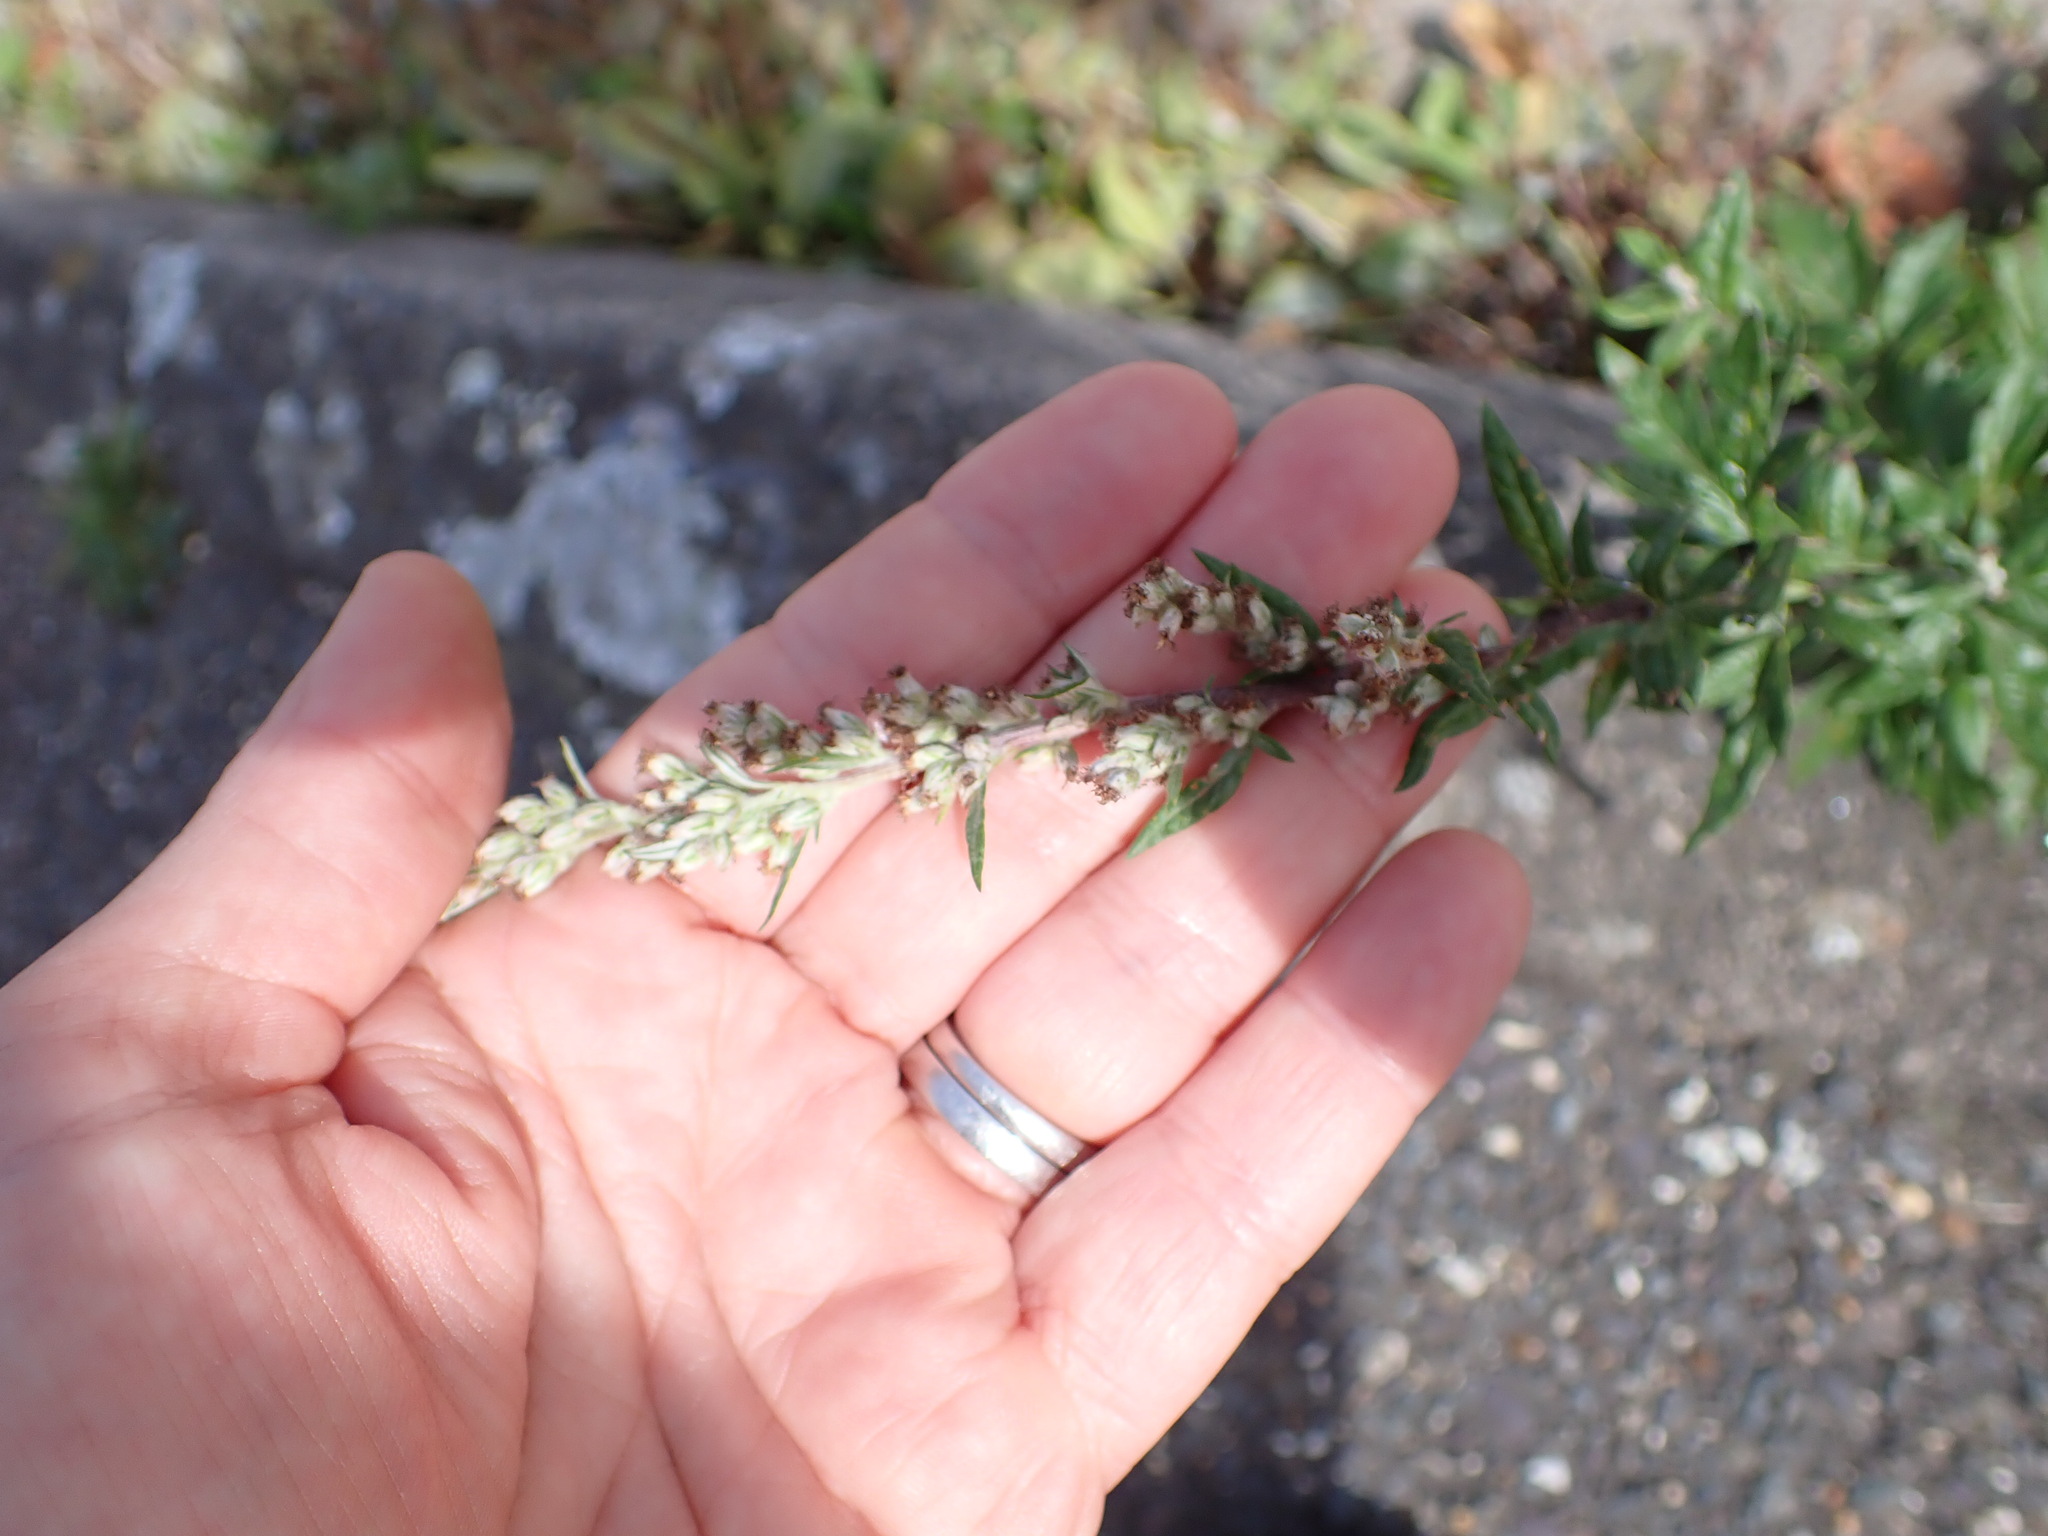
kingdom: Plantae
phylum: Tracheophyta
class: Magnoliopsida
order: Asterales
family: Asteraceae
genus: Artemisia
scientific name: Artemisia vulgaris
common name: Mugwort
